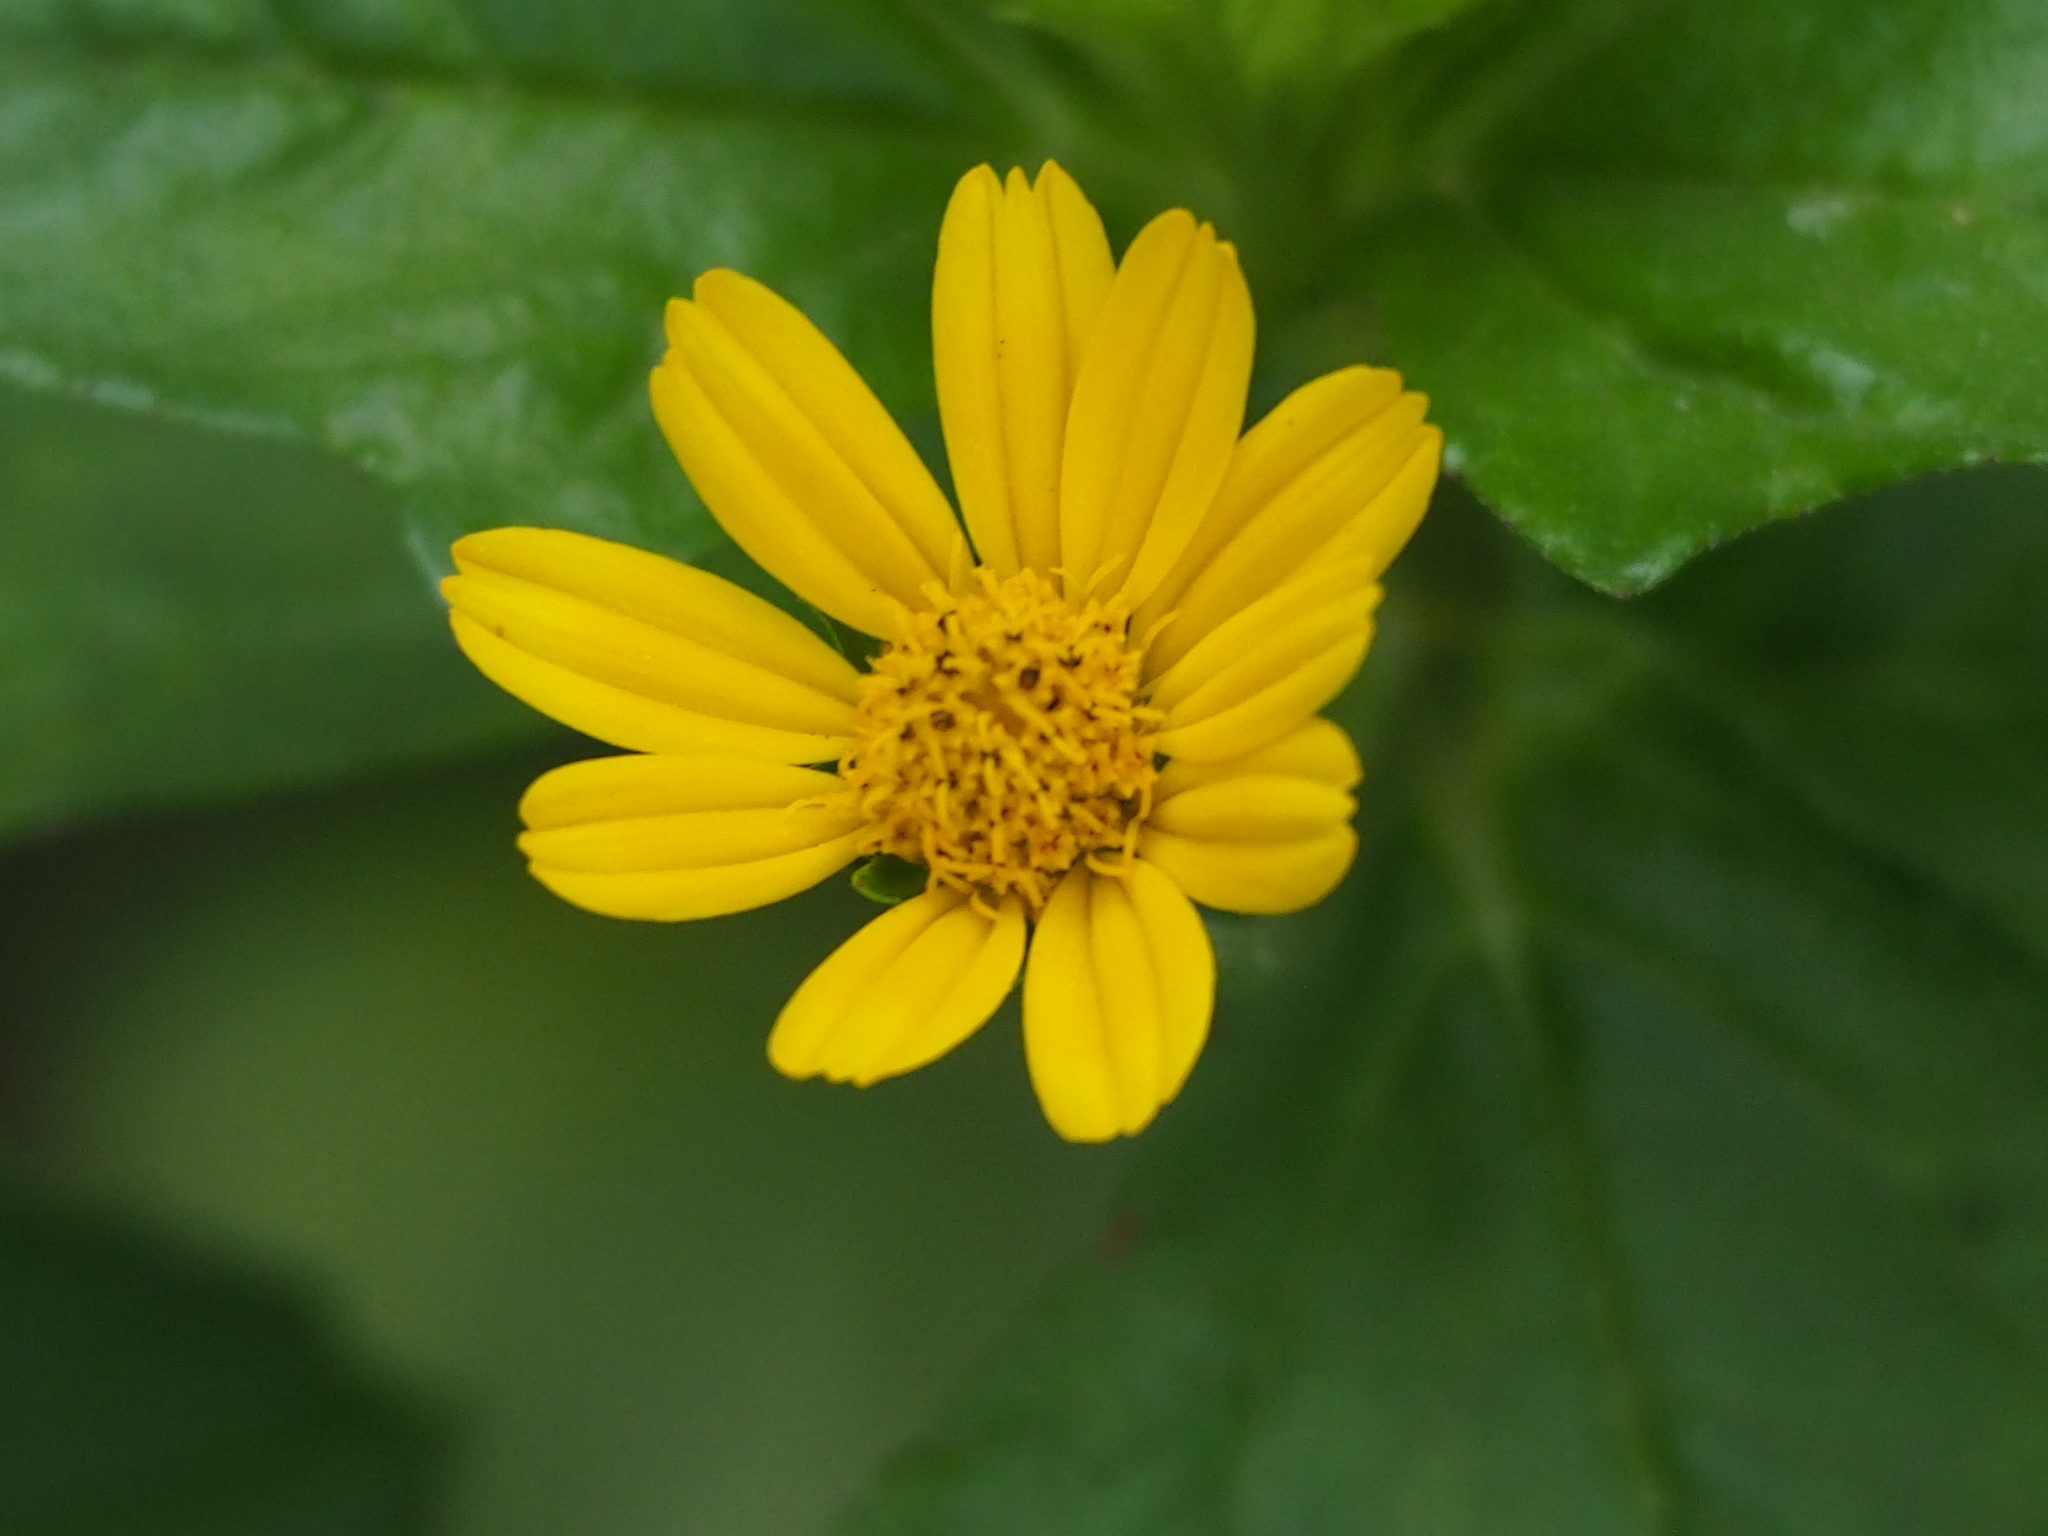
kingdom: Plantae
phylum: Tracheophyta
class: Magnoliopsida
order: Asterales
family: Asteraceae
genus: Sphagneticola
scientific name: Sphagneticola trilobata
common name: Bay biscayne creeping-oxeye
